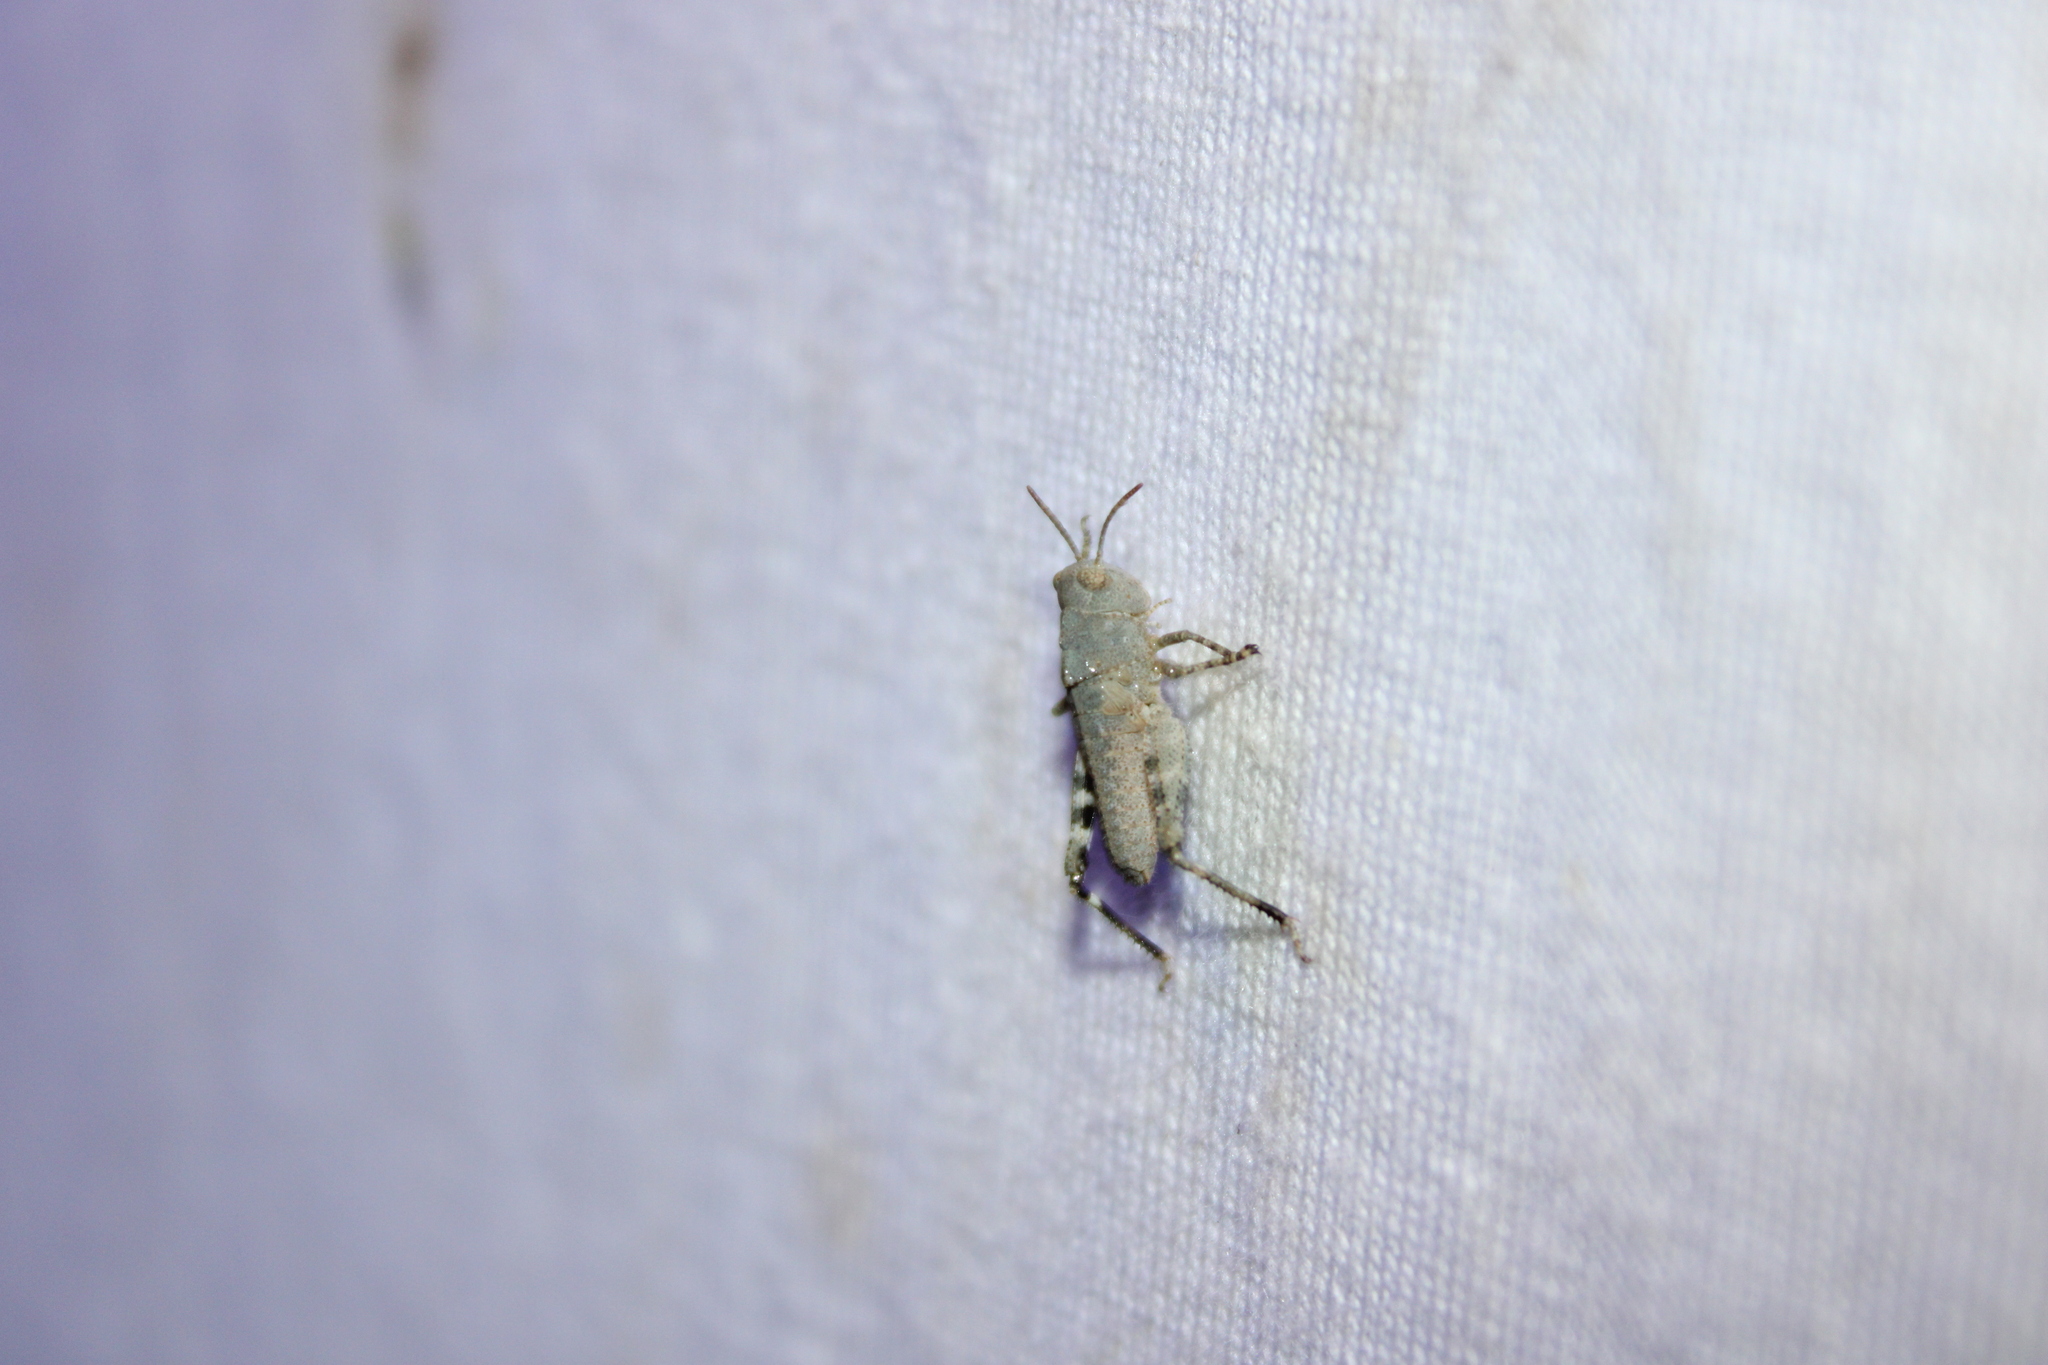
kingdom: Animalia
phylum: Arthropoda
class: Insecta
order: Orthoptera
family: Acrididae
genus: Dissosteira
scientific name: Dissosteira carolina
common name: Carolina grasshopper
